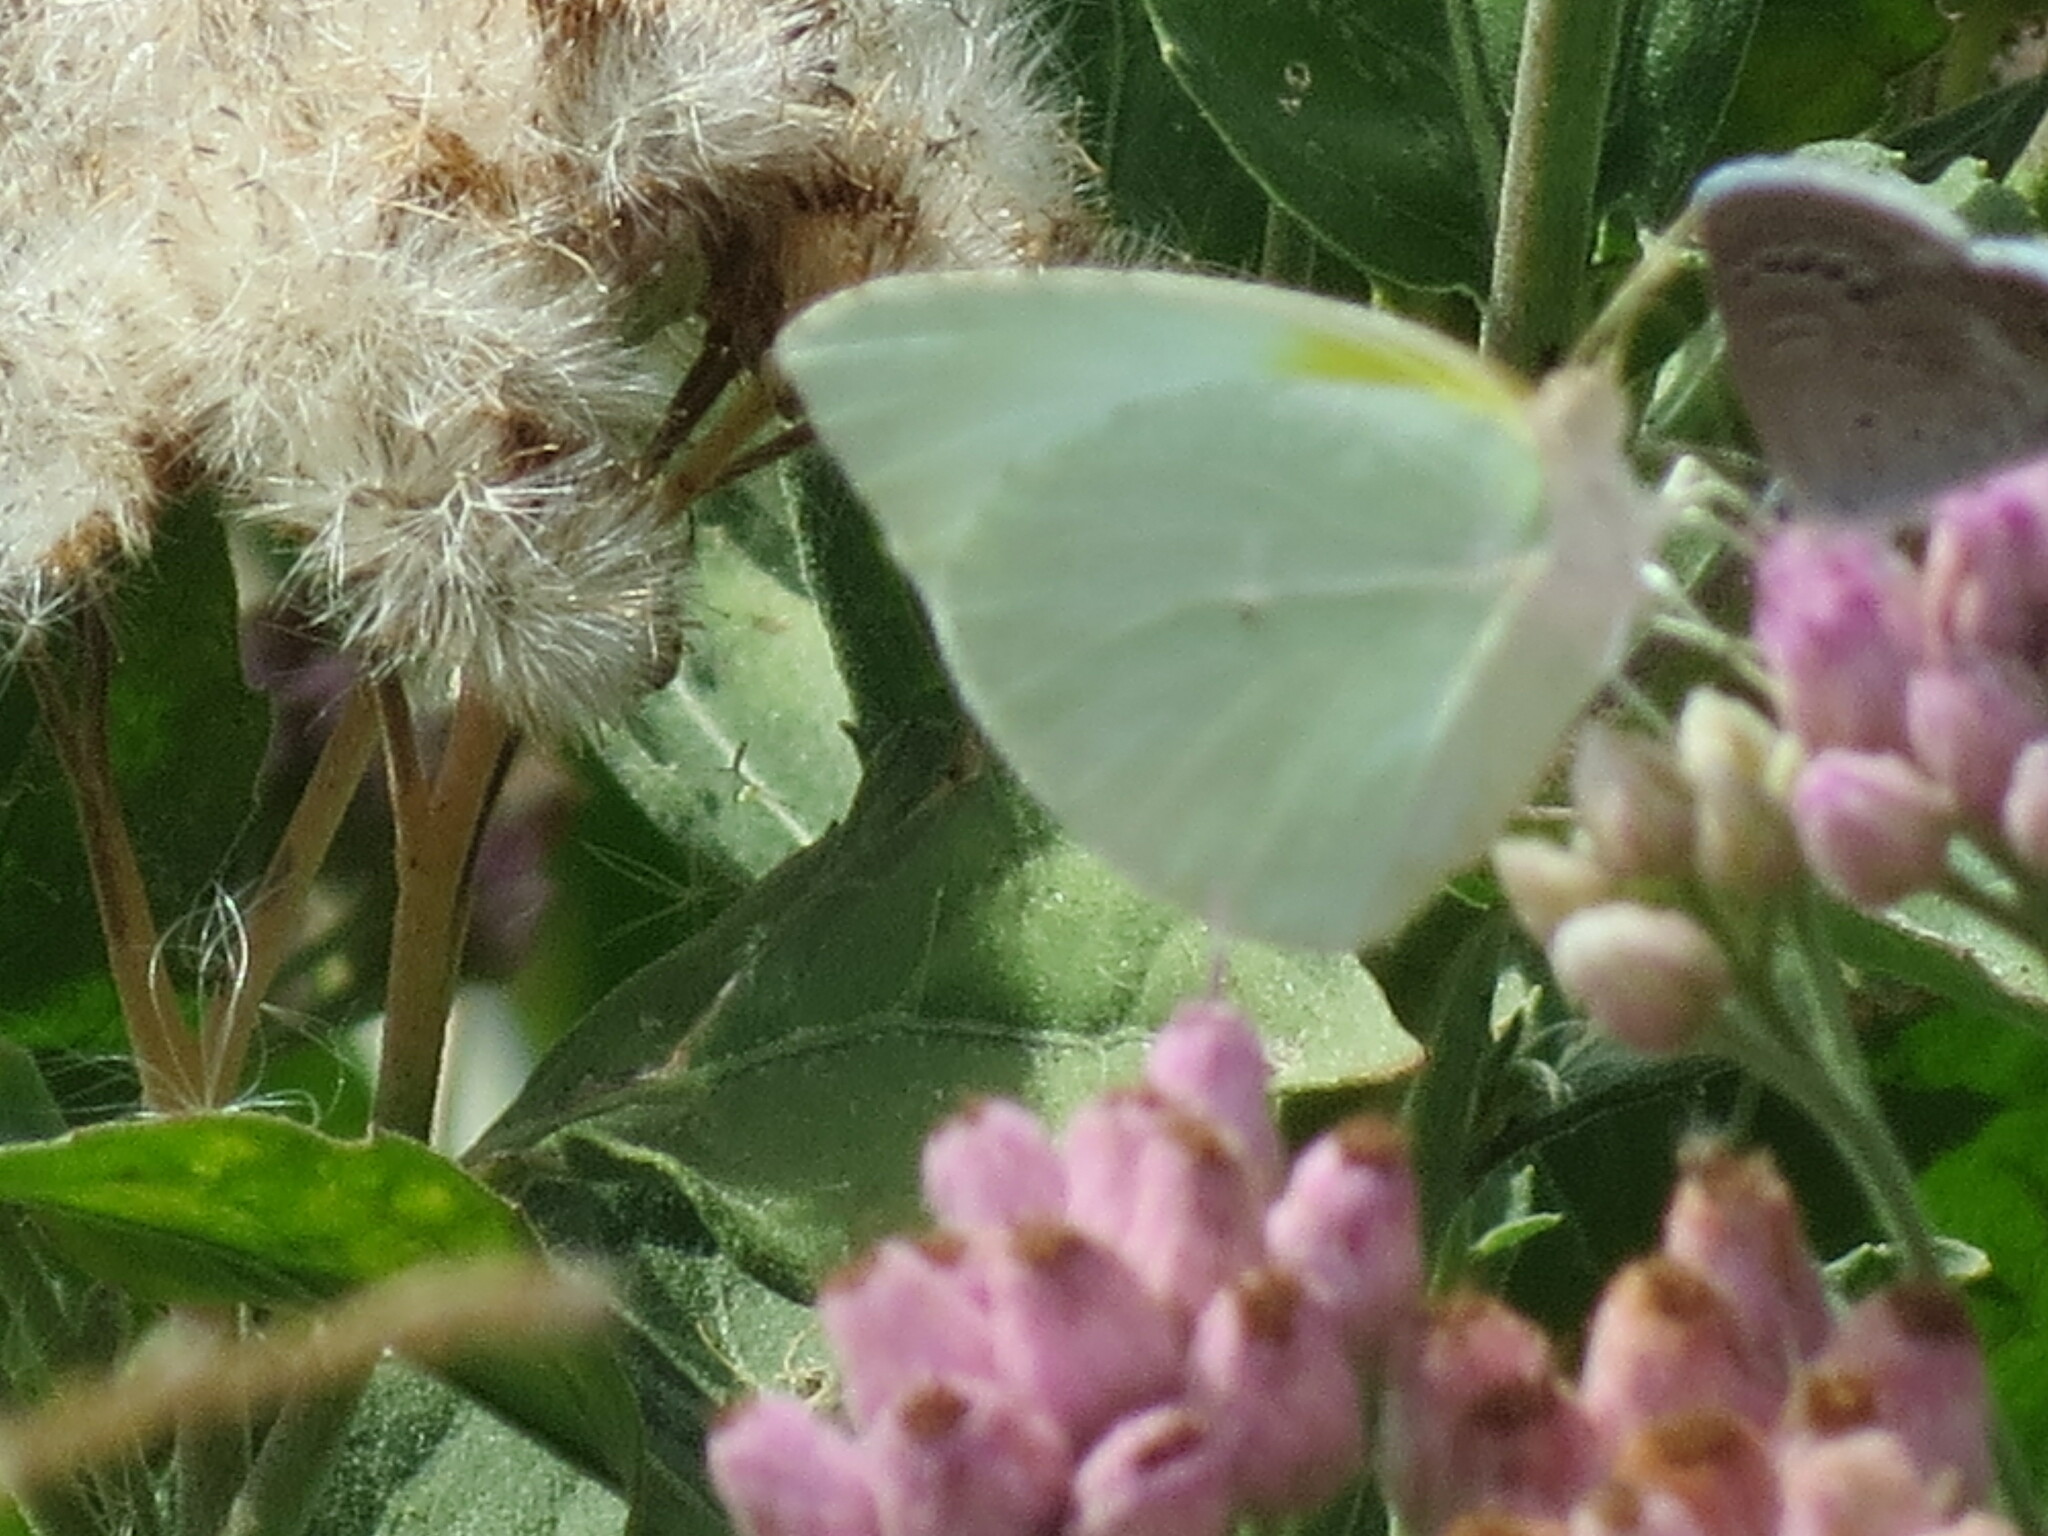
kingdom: Animalia
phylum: Arthropoda
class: Insecta
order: Lepidoptera
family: Pieridae
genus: Kricogonia
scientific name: Kricogonia lyside
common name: Guayacan sulphur,
